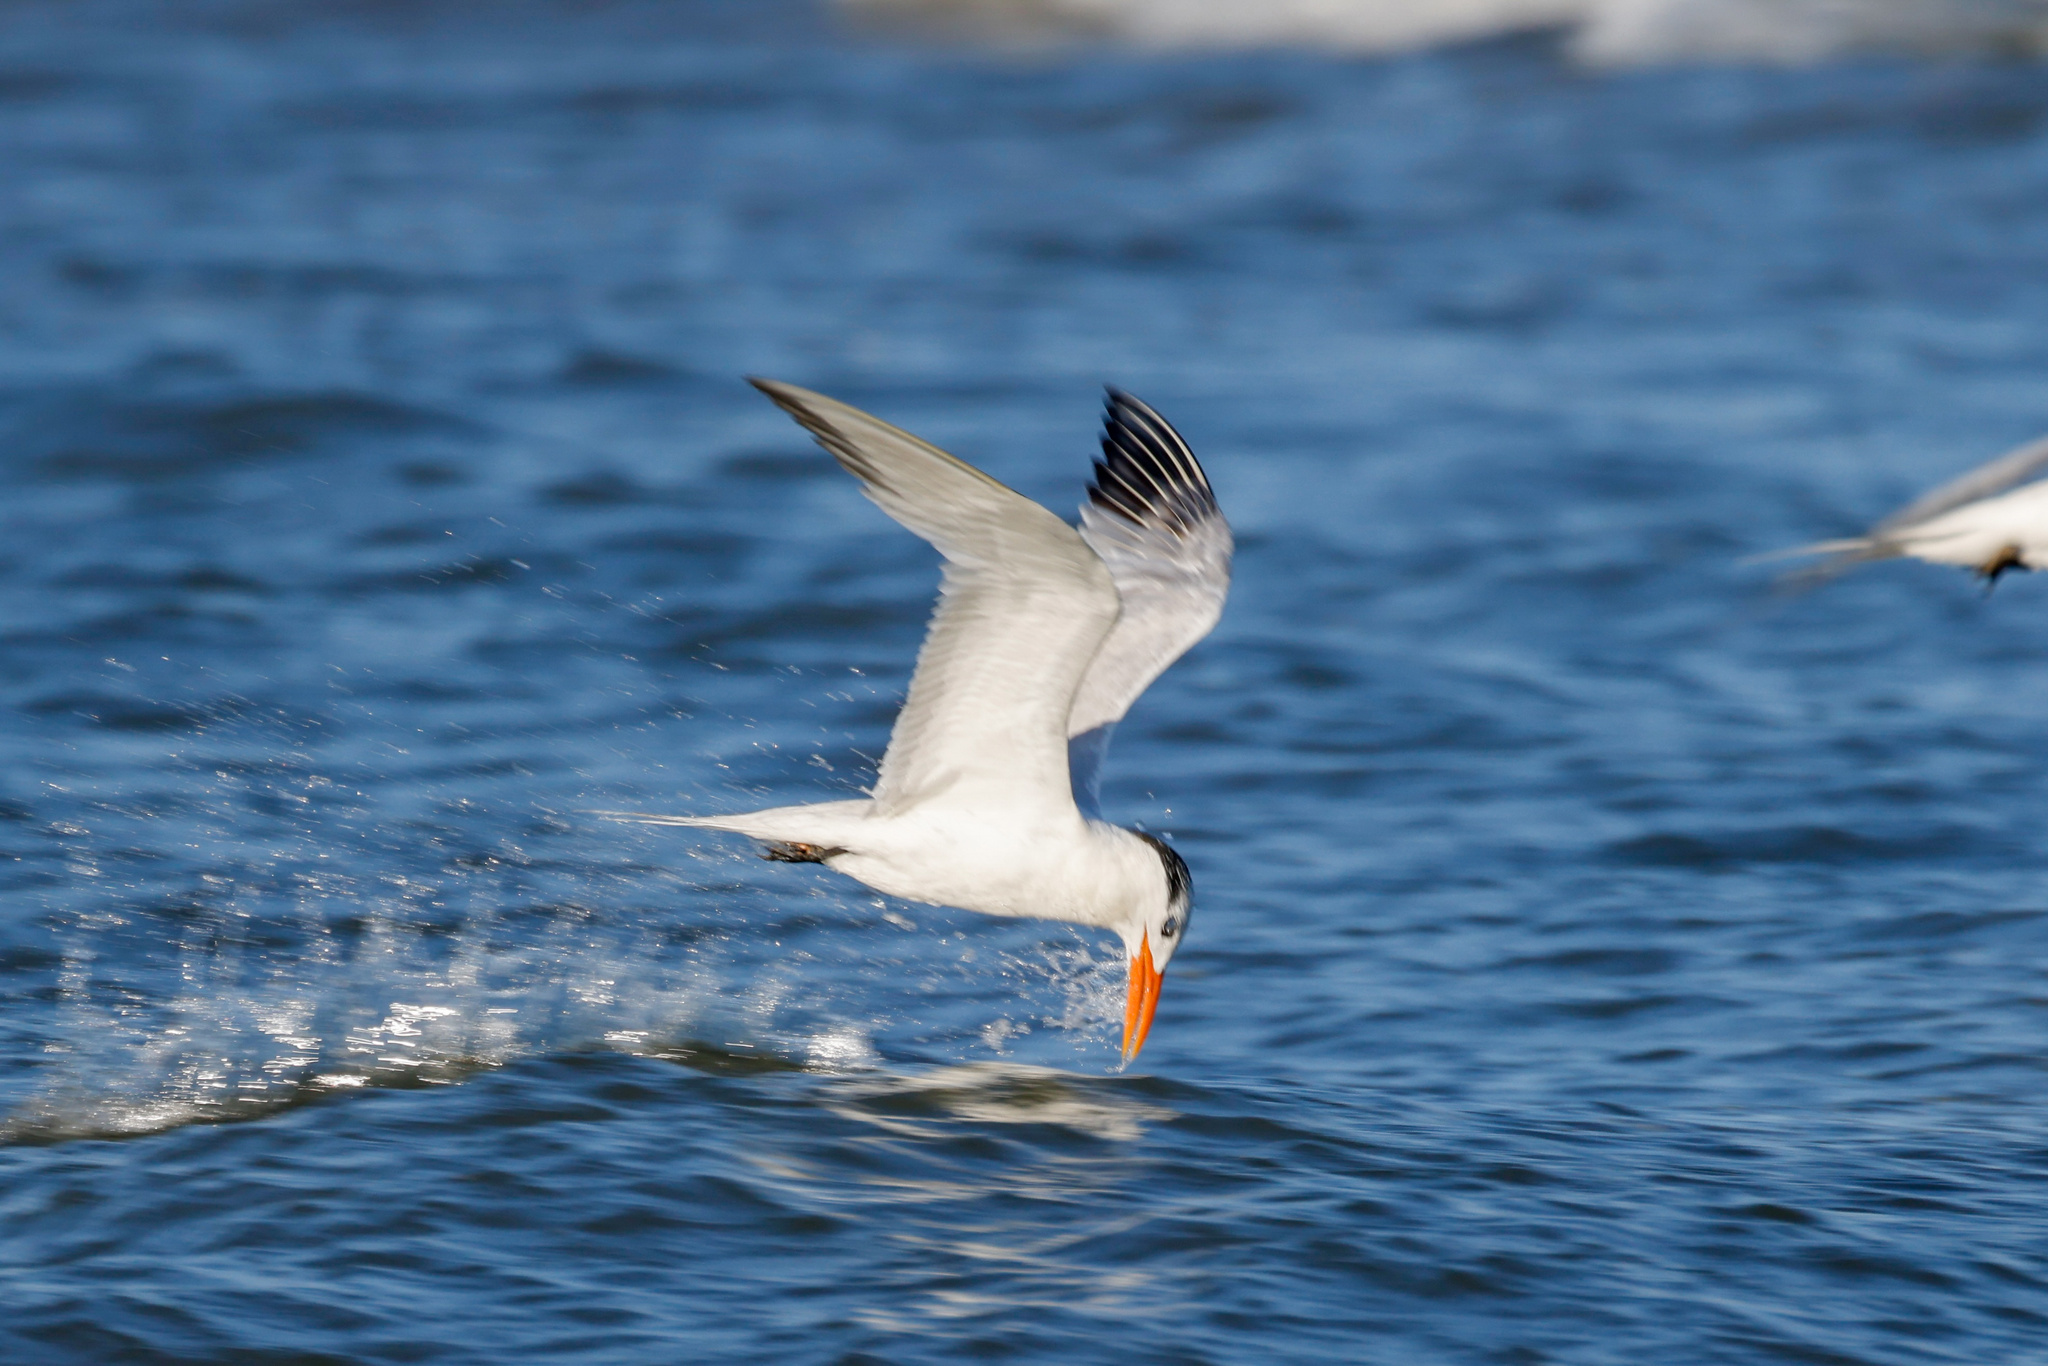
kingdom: Animalia
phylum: Chordata
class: Aves
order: Charadriiformes
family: Laridae
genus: Thalasseus
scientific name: Thalasseus maximus
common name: Royal tern
